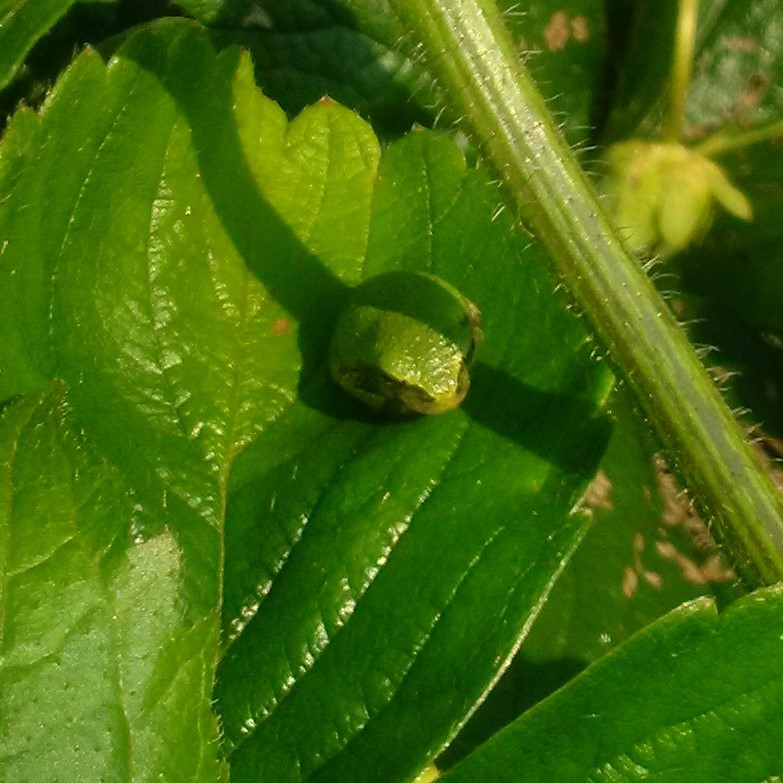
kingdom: Animalia
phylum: Chordata
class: Amphibia
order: Anura
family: Hylidae
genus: Dryophytes
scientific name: Dryophytes versicolor
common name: Gray treefrog
